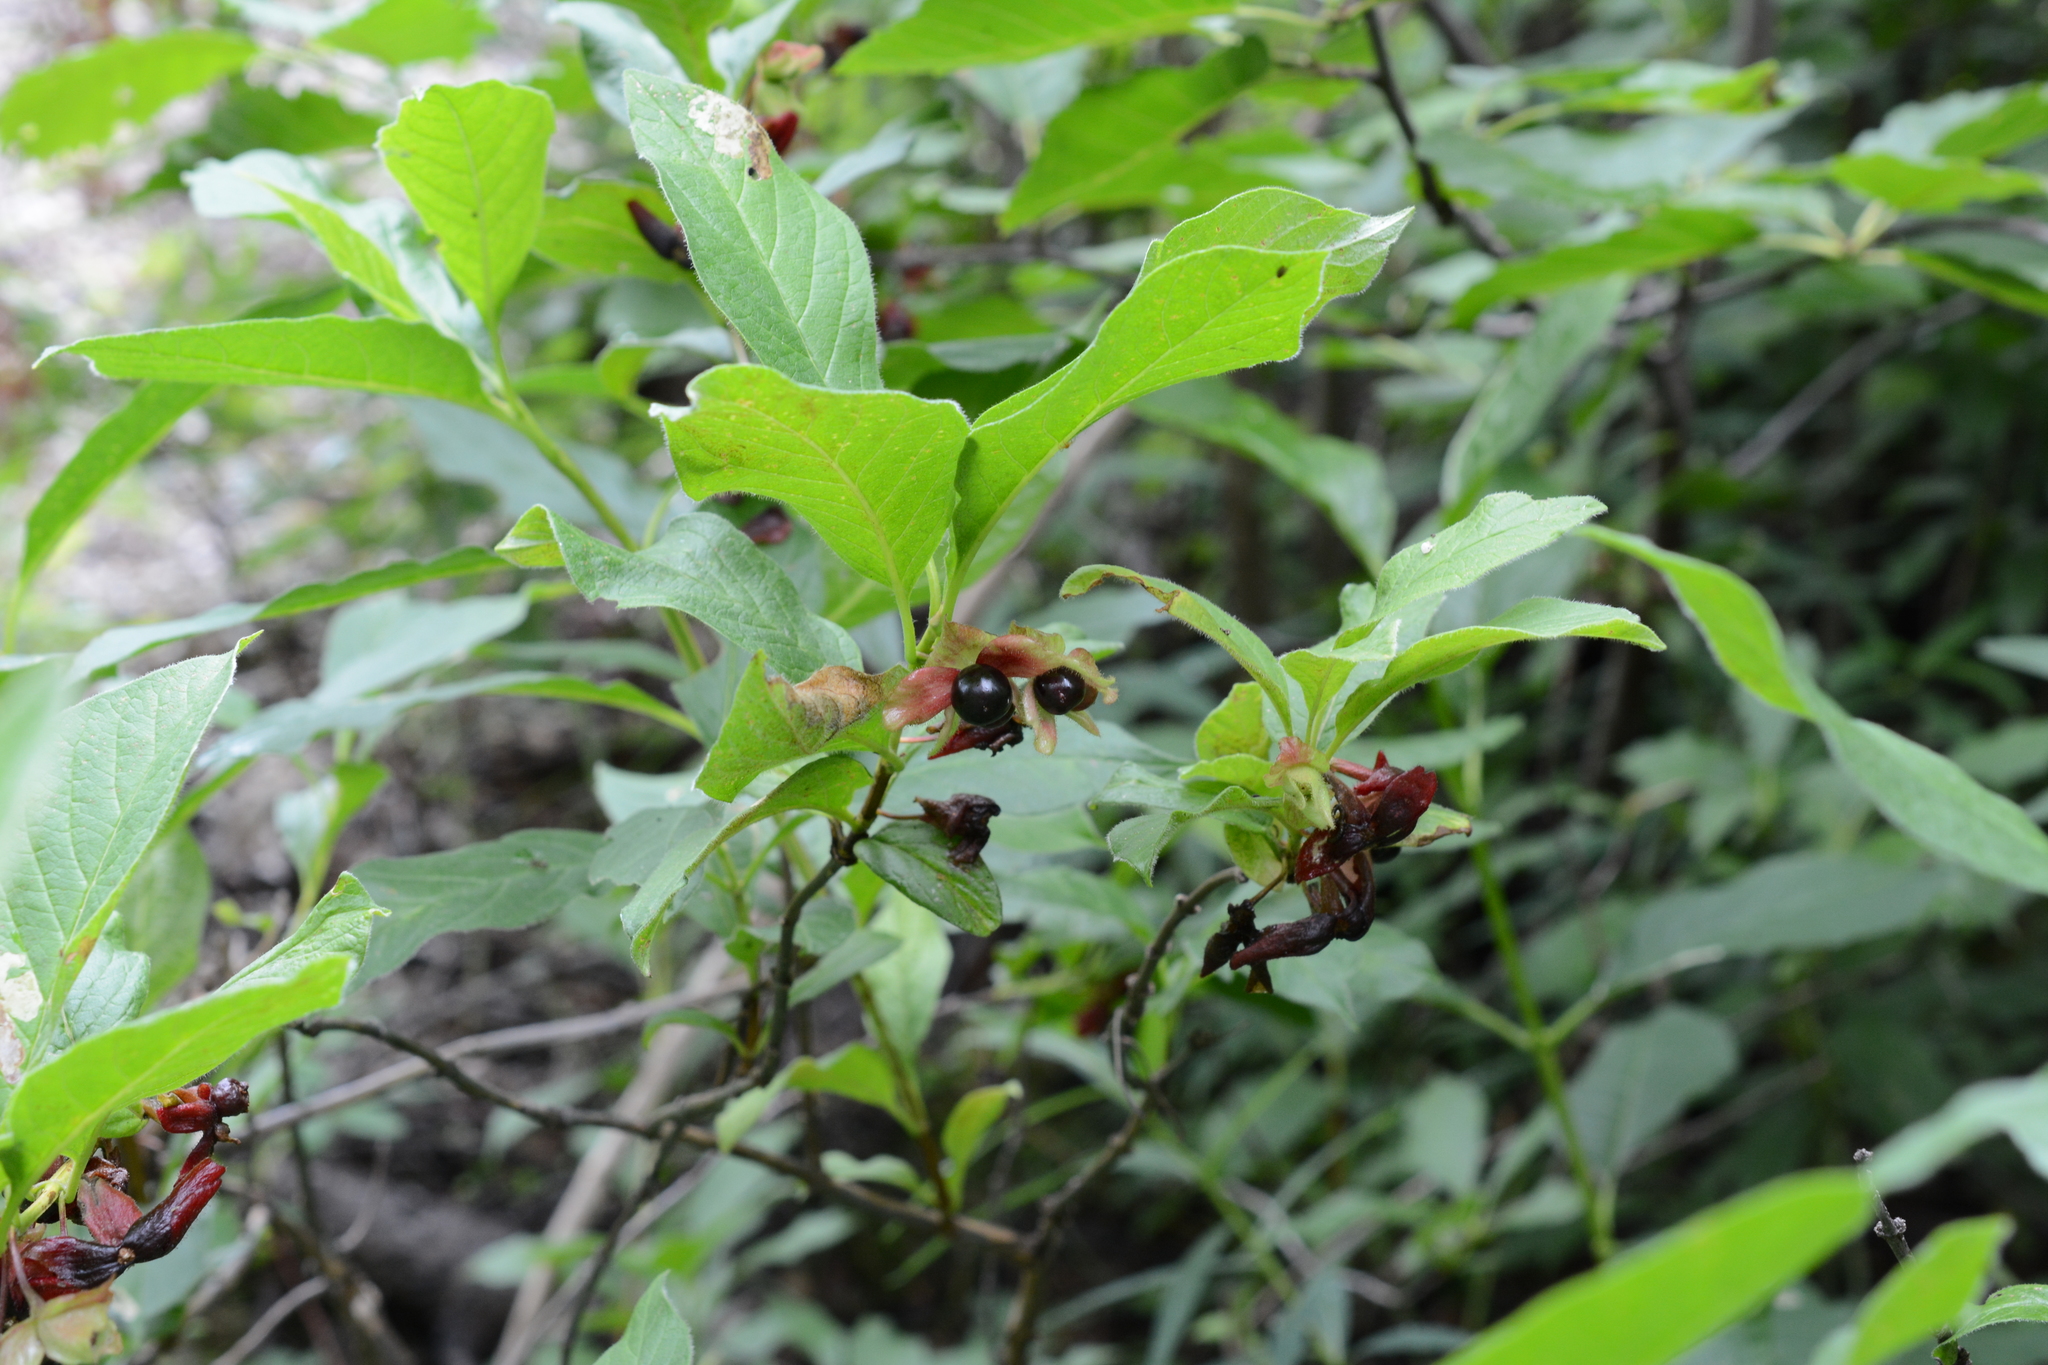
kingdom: Plantae
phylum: Tracheophyta
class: Magnoliopsida
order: Dipsacales
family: Caprifoliaceae
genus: Lonicera
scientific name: Lonicera involucrata
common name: Californian honeysuckle
